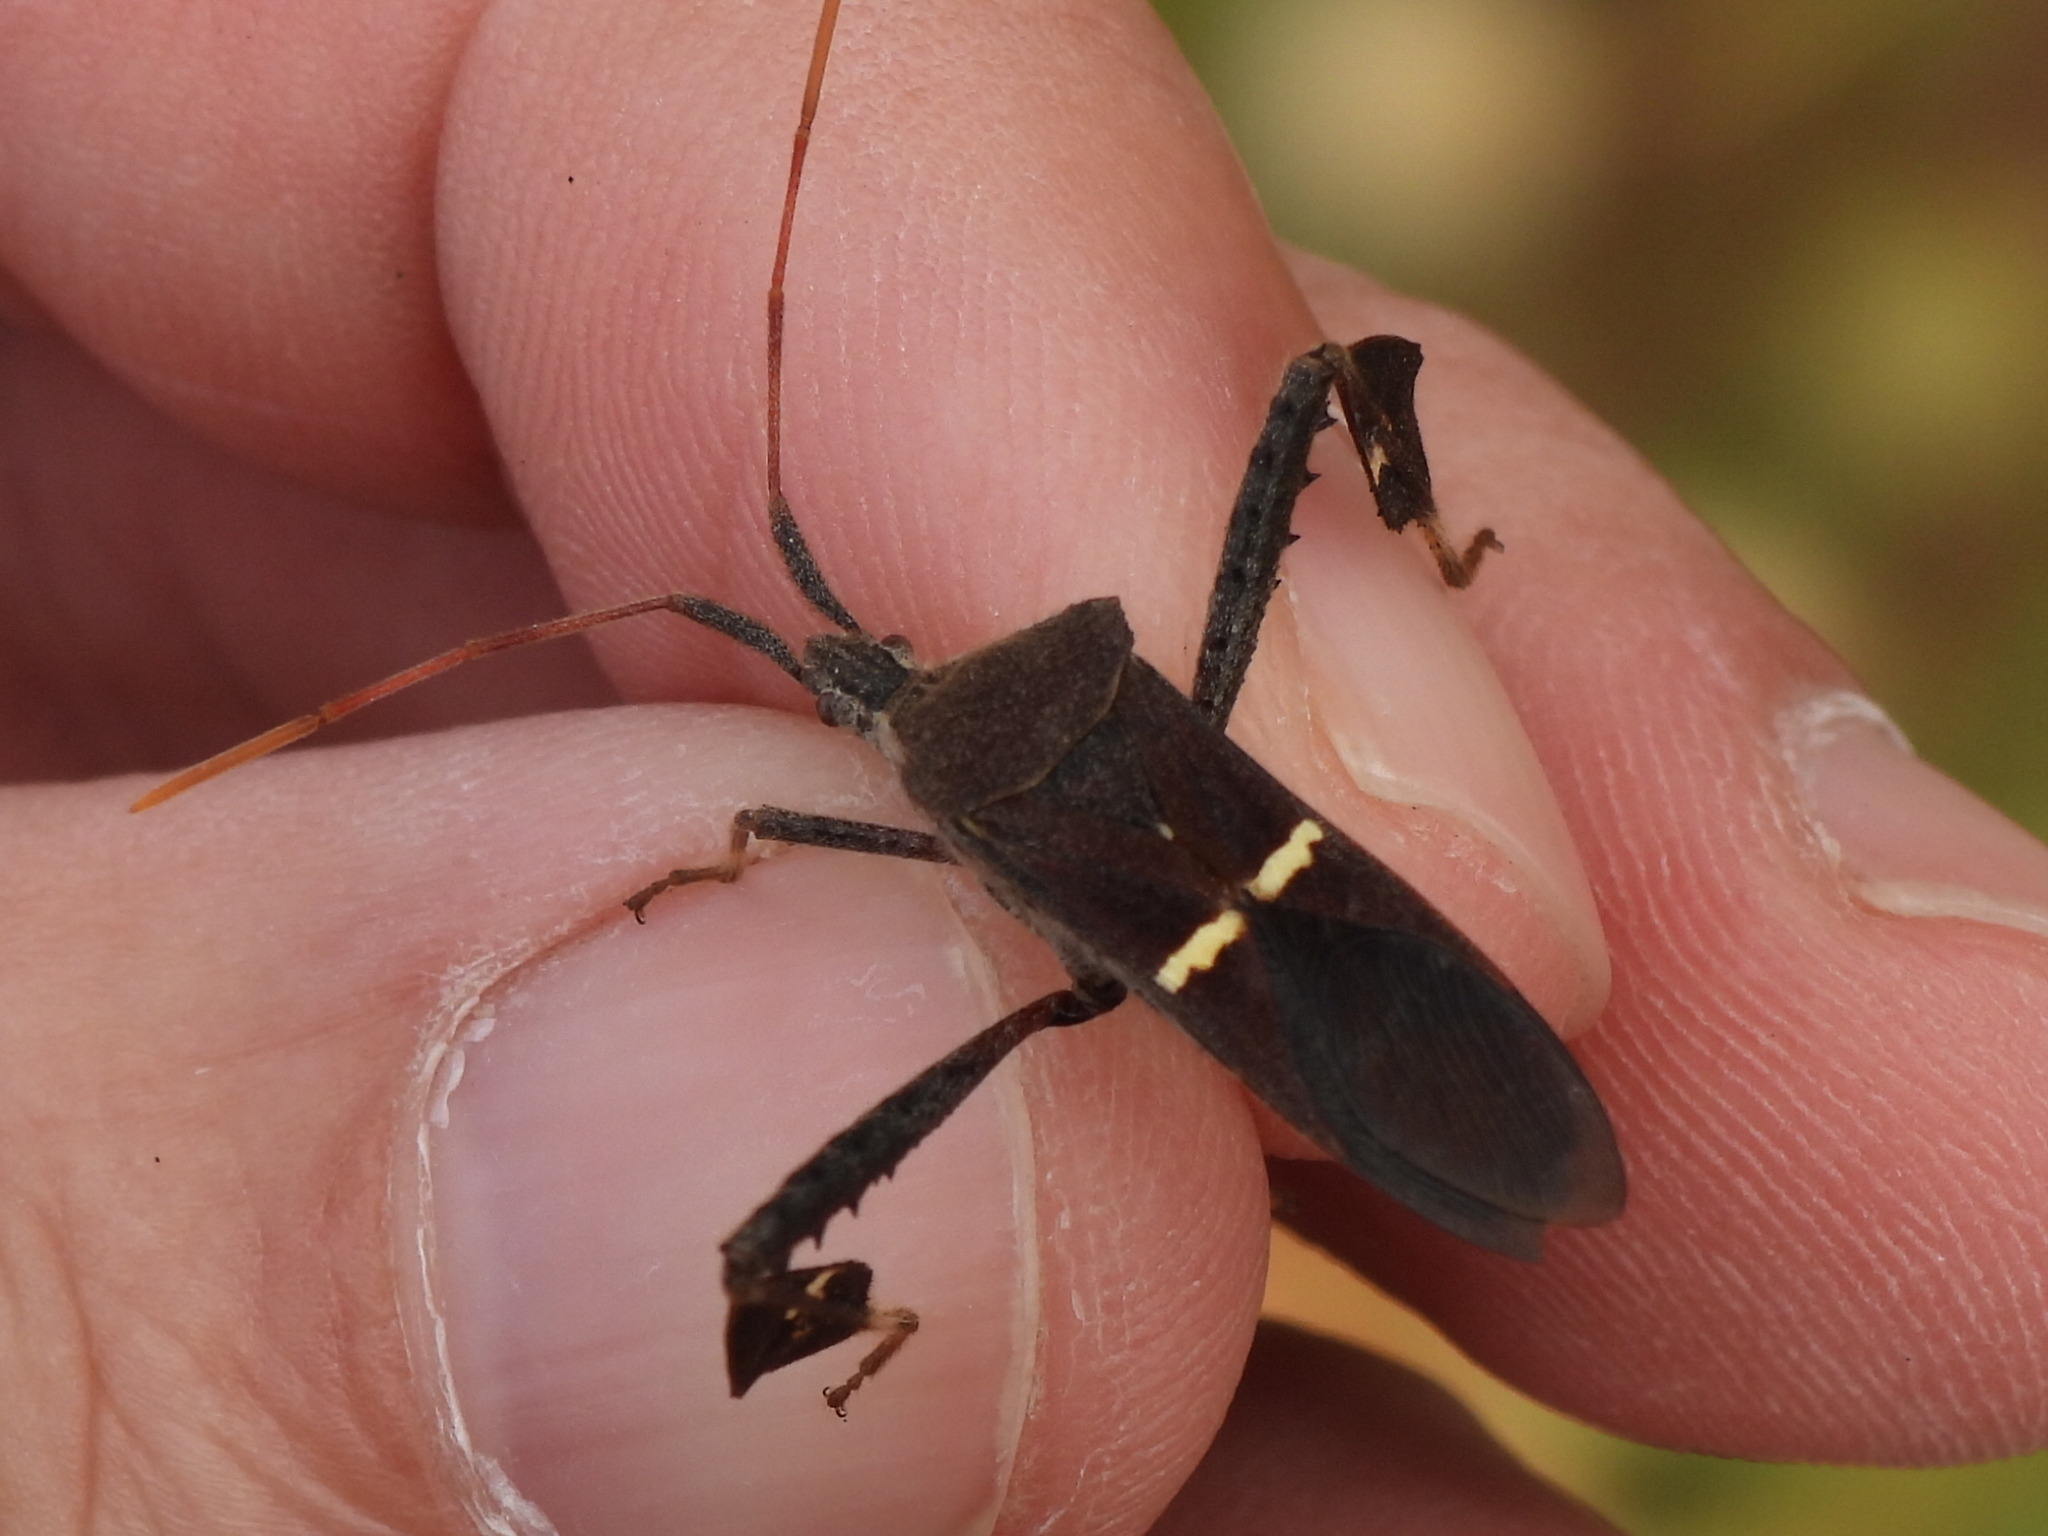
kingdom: Animalia
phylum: Arthropoda
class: Insecta
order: Hemiptera
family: Coreidae
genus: Leptoglossus
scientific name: Leptoglossus phyllopus
